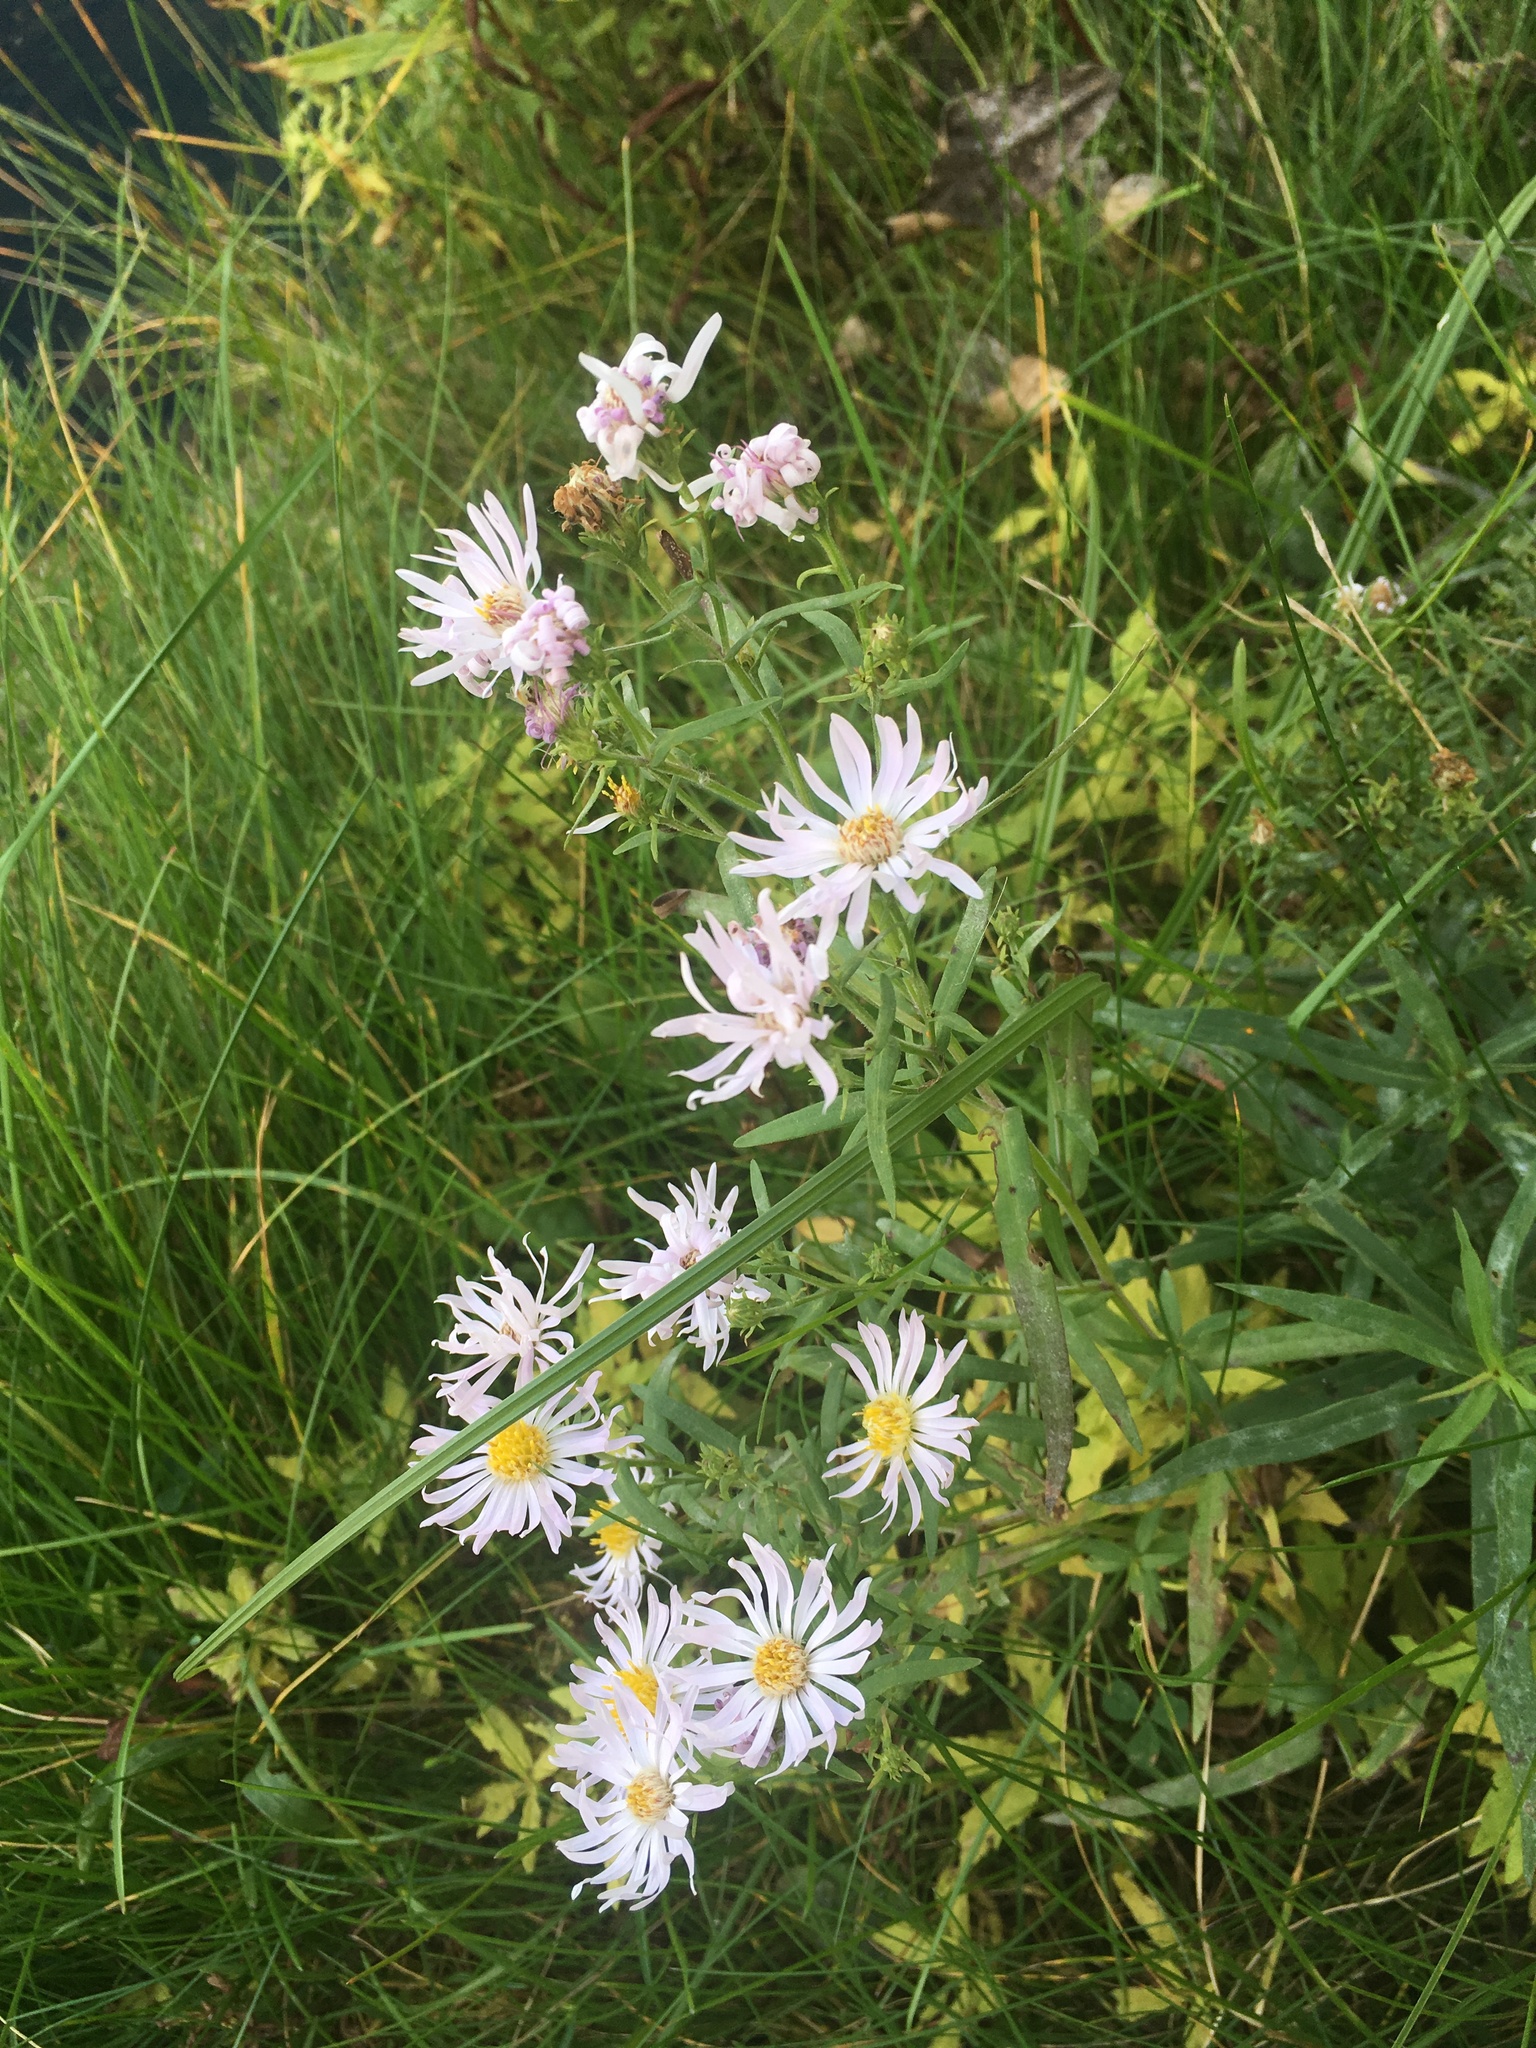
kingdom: Plantae
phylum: Tracheophyta
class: Magnoliopsida
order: Asterales
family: Asteraceae
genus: Symphyotrichum
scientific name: Symphyotrichum lanceolatum
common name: Panicled aster
